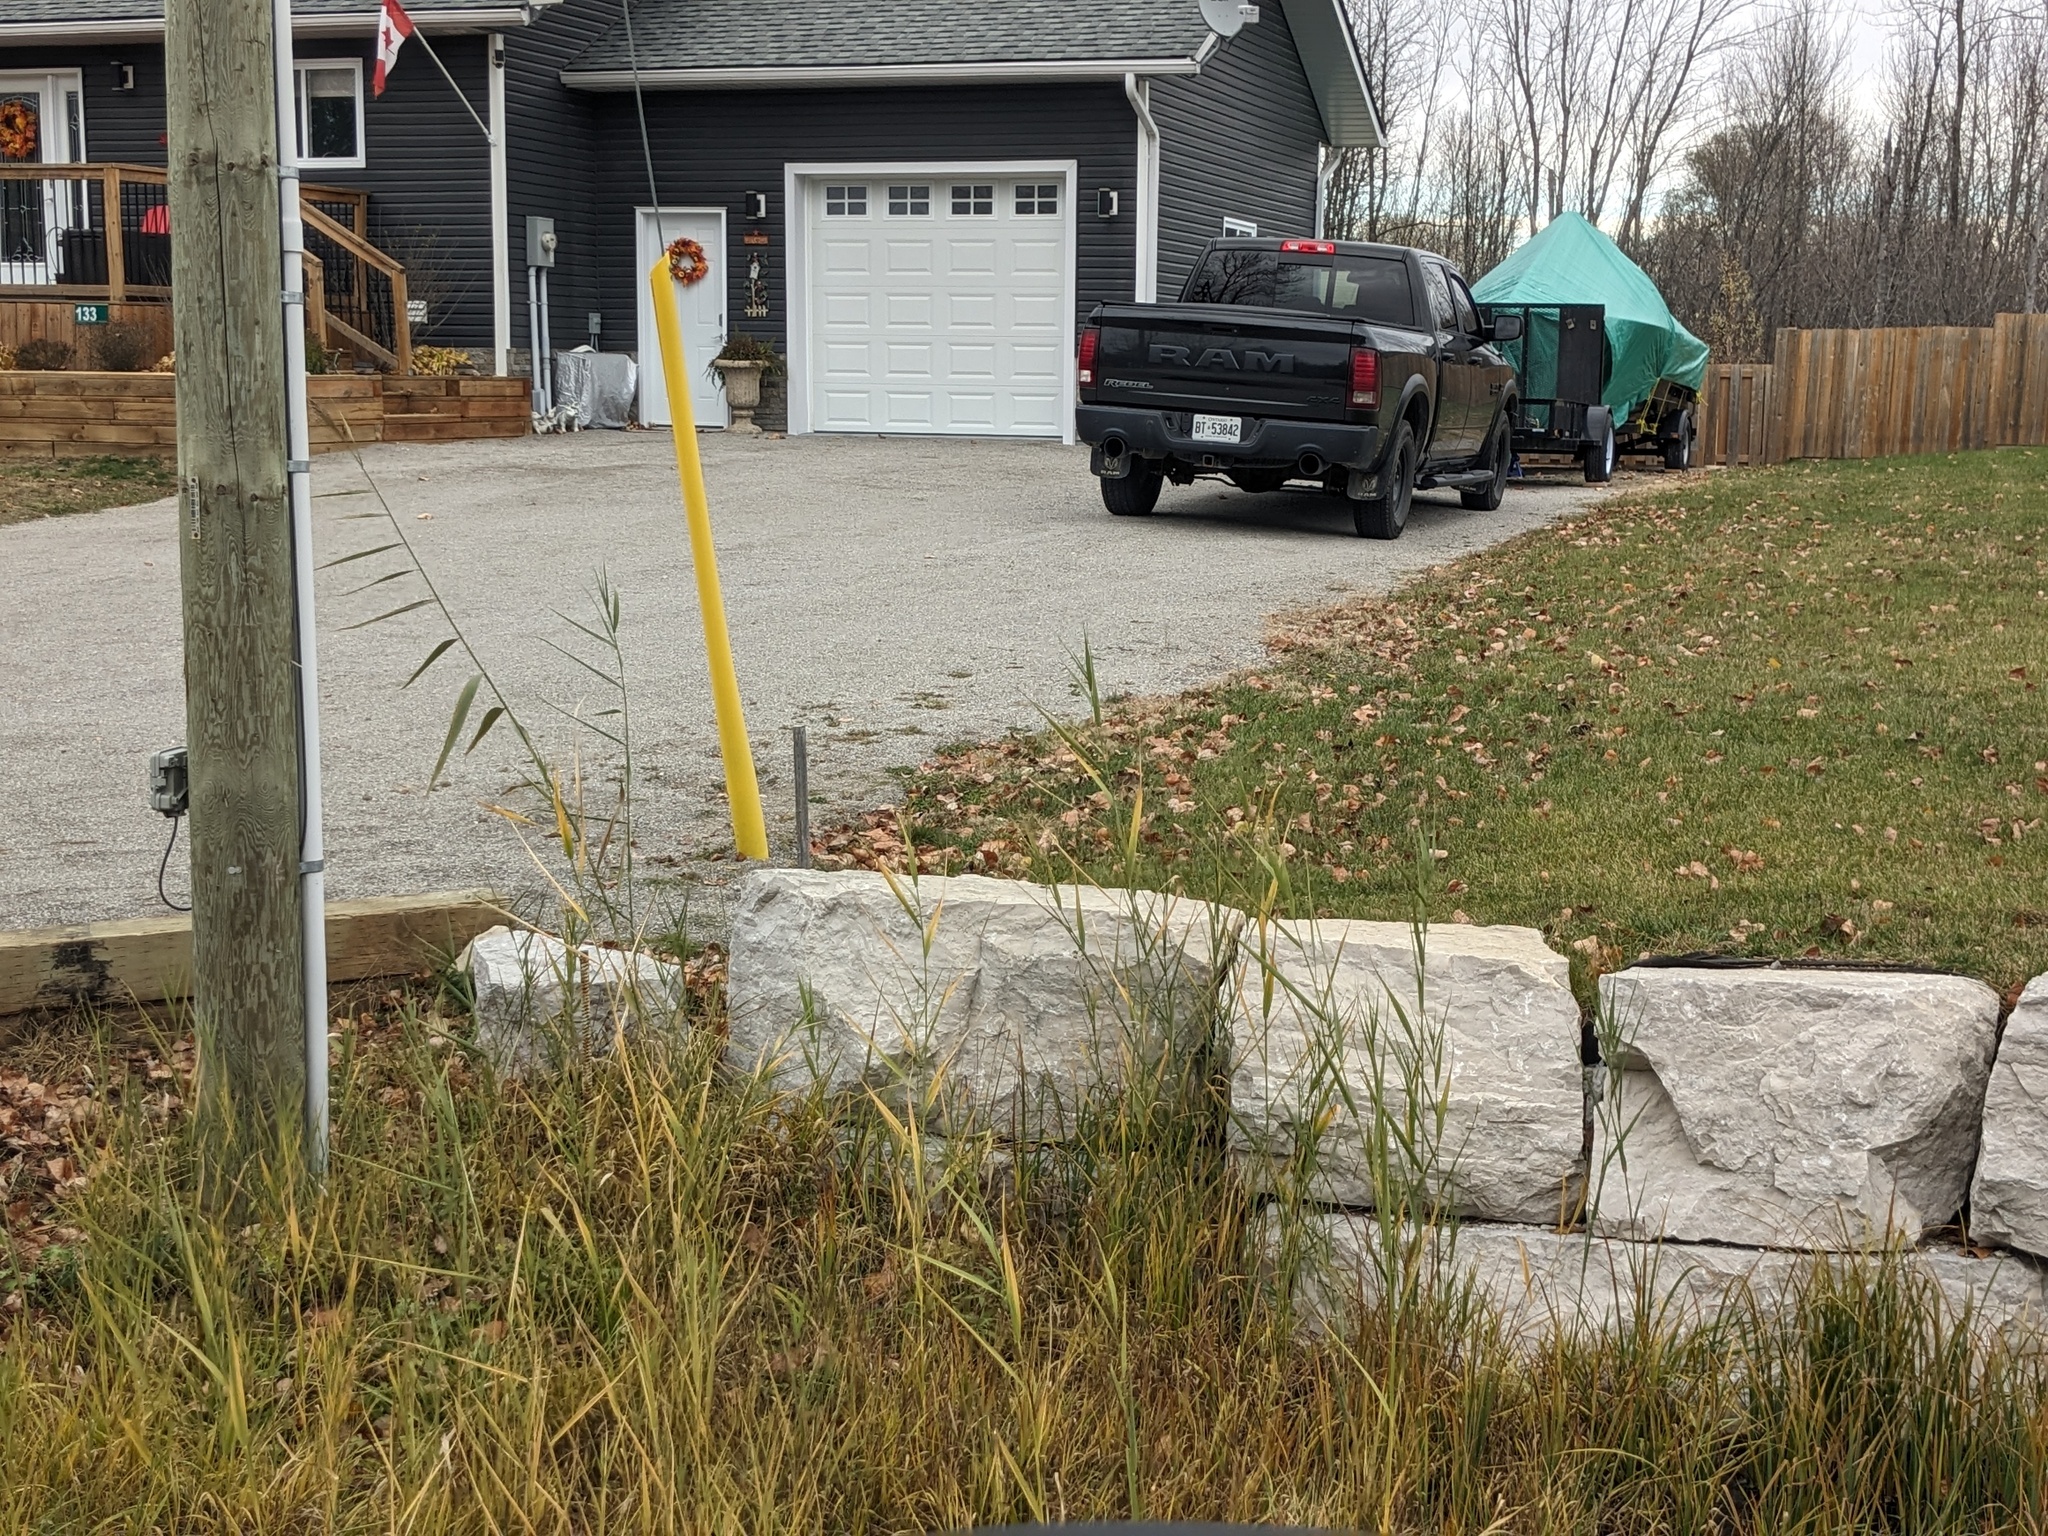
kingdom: Plantae
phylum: Tracheophyta
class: Liliopsida
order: Poales
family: Poaceae
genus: Phragmites
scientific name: Phragmites australis
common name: Common reed
